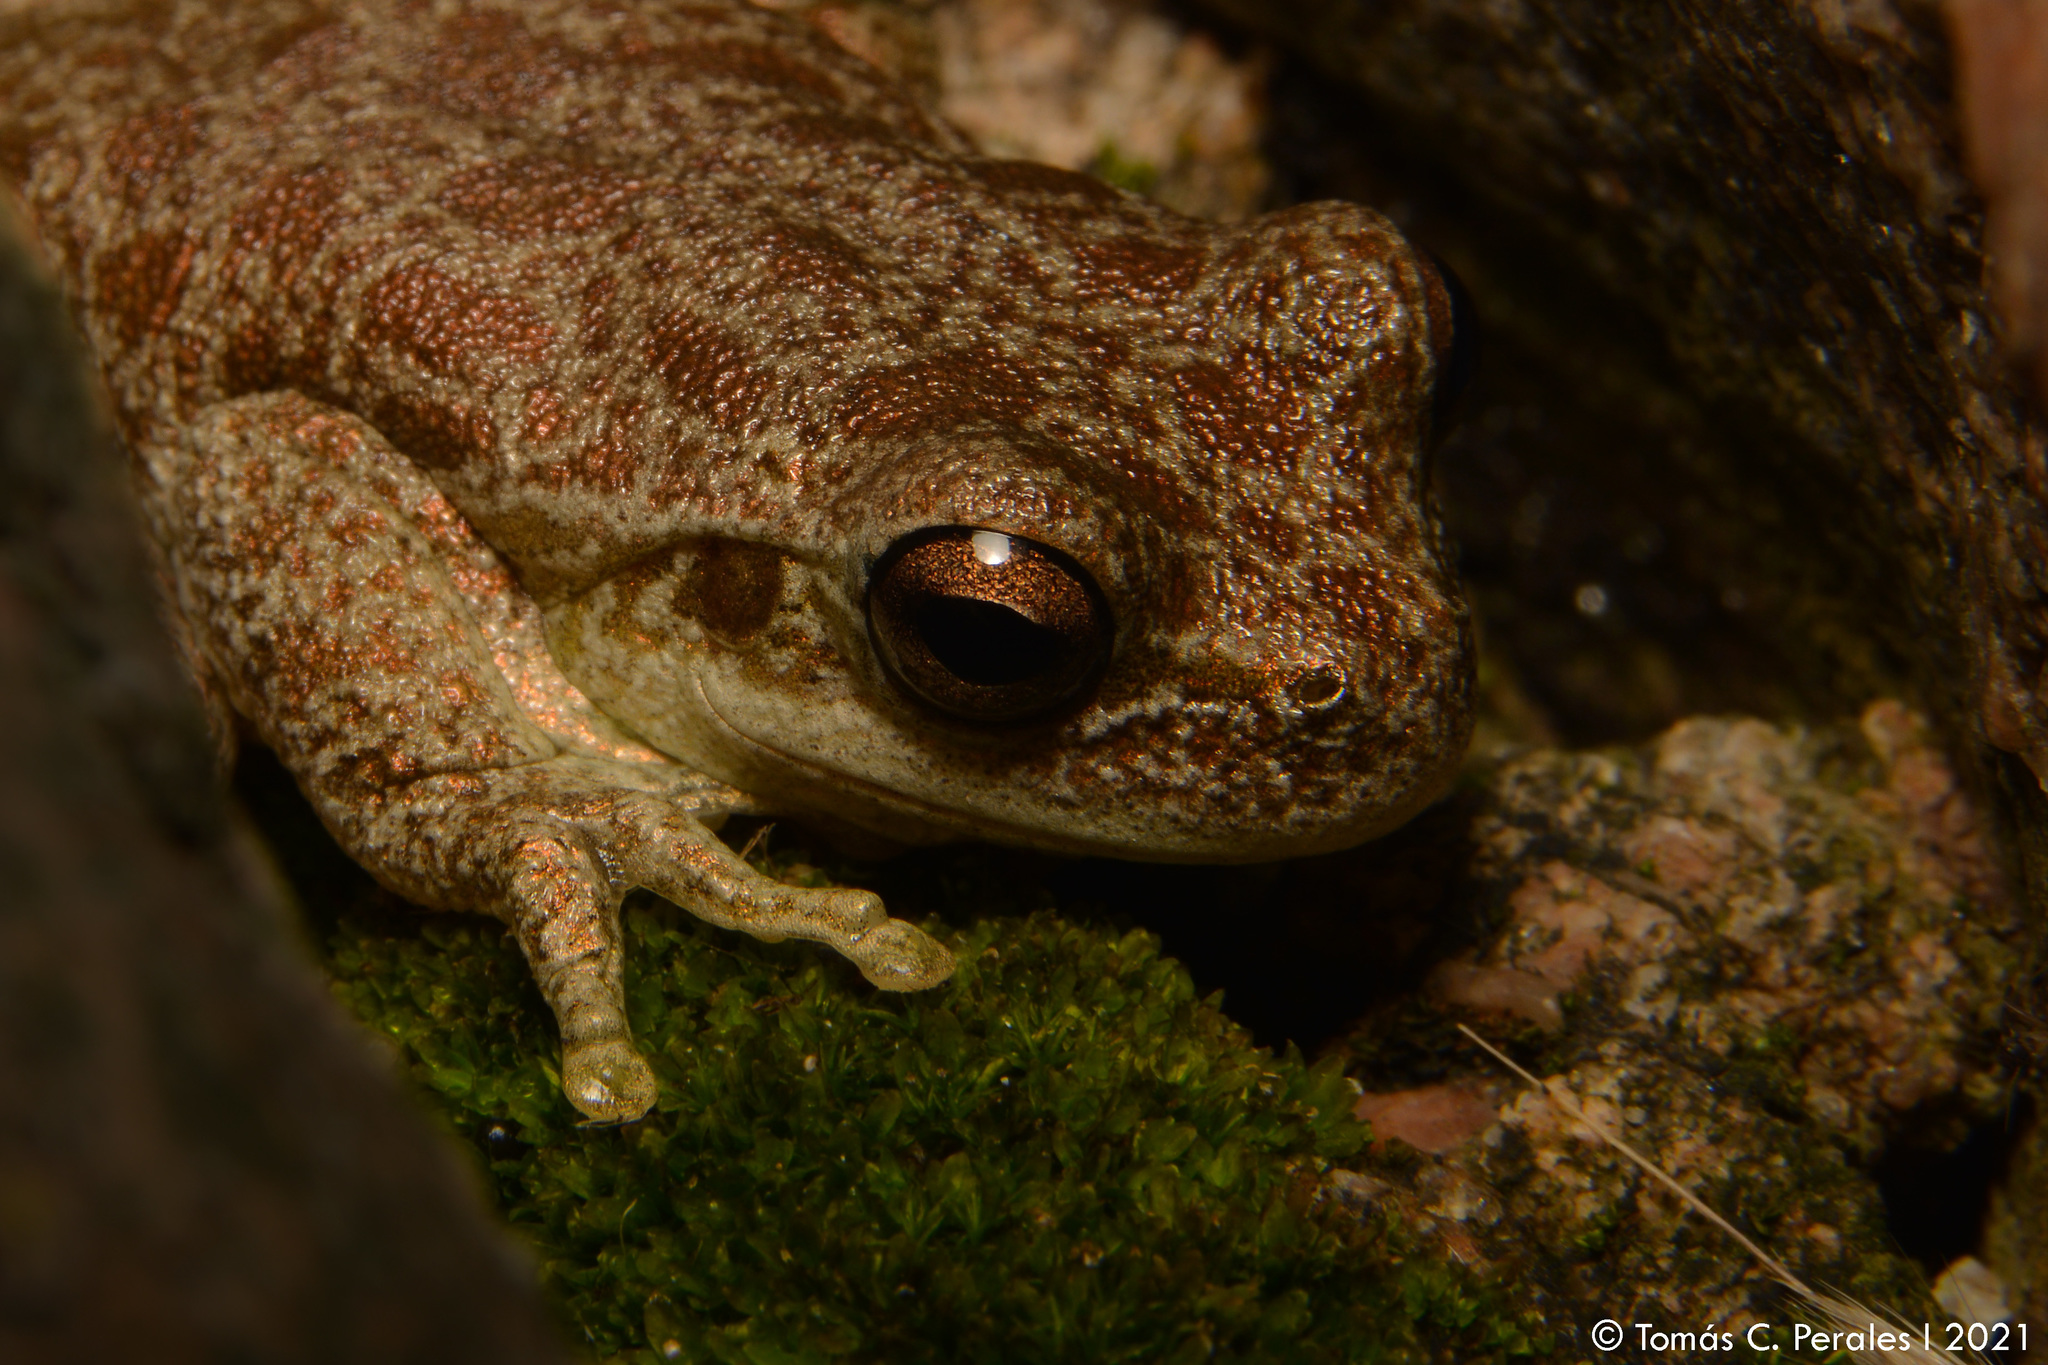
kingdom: Animalia
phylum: Chordata
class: Amphibia
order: Anura
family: Hylidae
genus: Boana
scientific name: Boana cordobae
